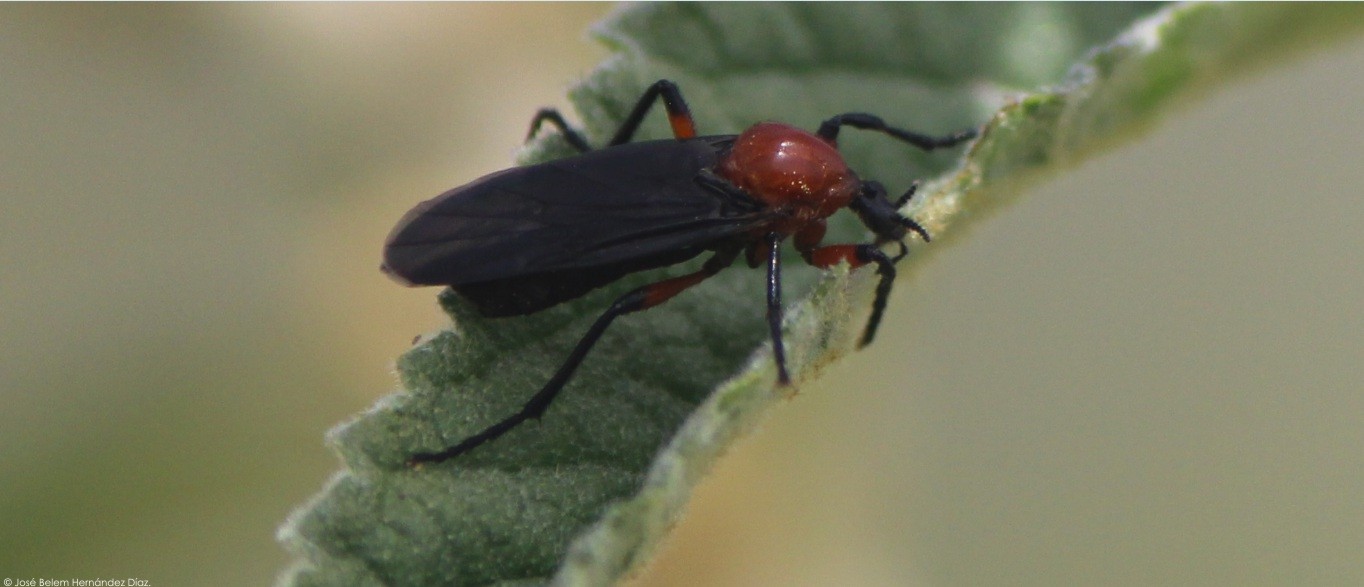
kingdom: Animalia
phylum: Arthropoda
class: Insecta
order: Diptera
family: Bibionidae
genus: Bibio
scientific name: Bibio fuligineus
